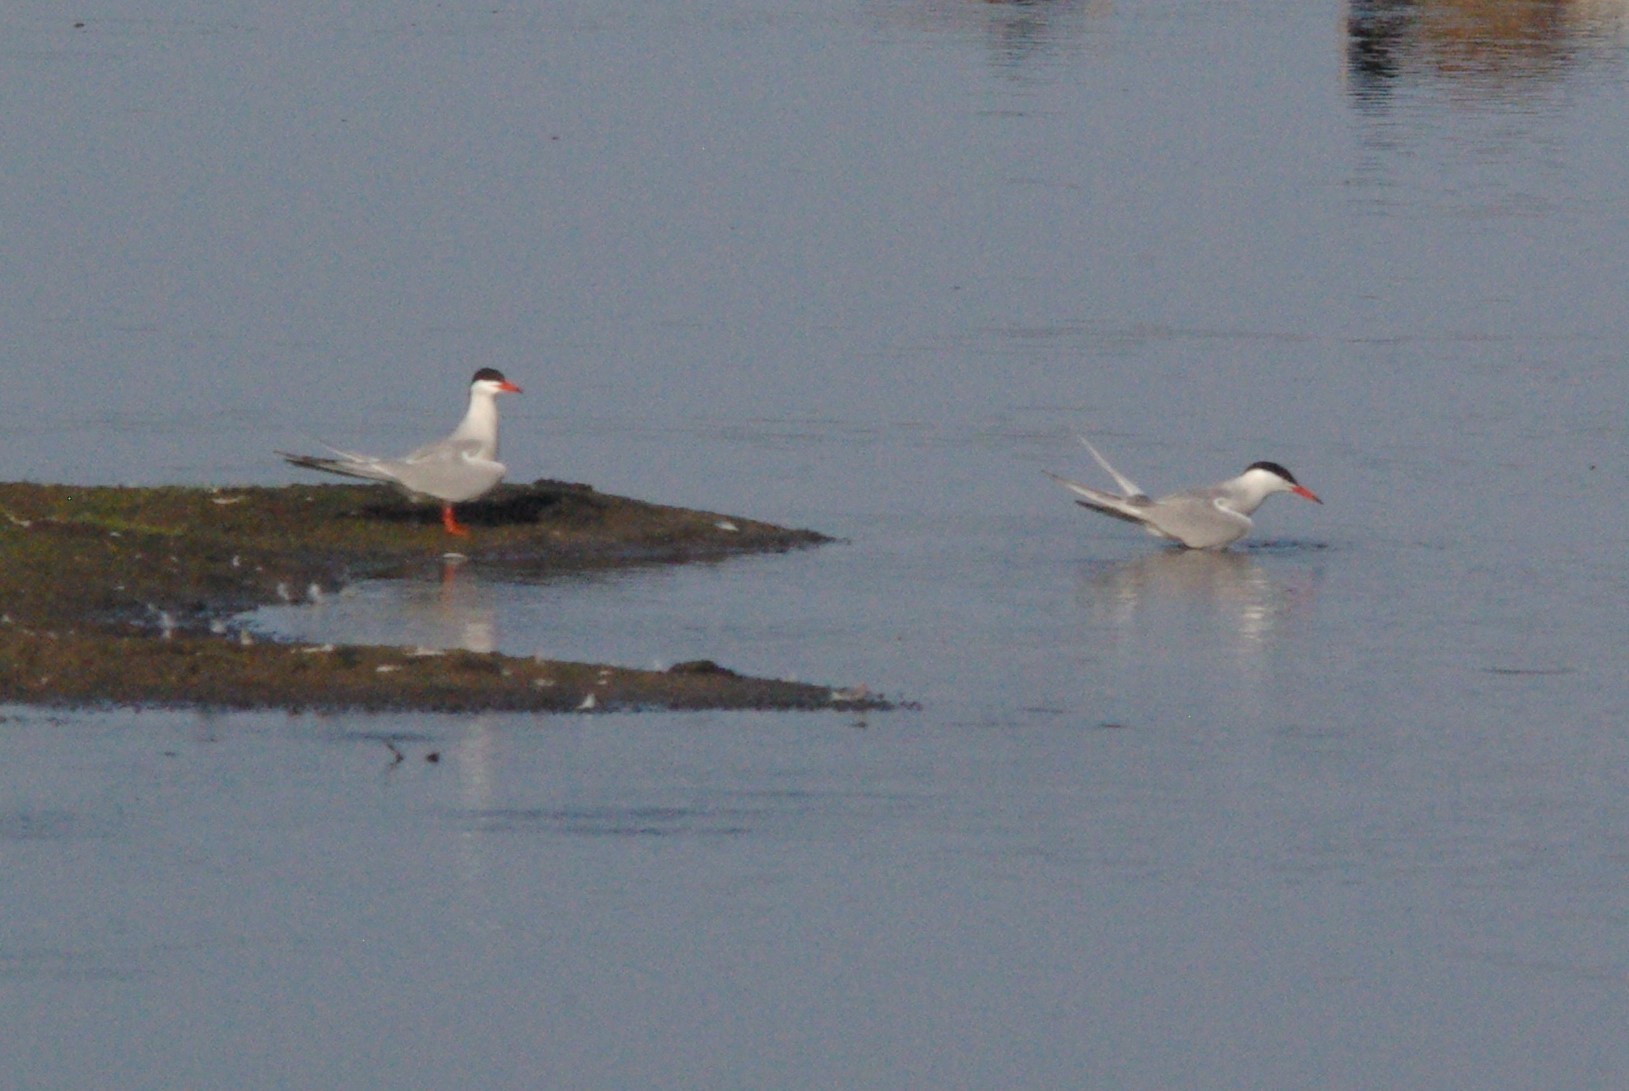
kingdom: Animalia
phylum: Chordata
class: Aves
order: Charadriiformes
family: Laridae
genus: Sterna
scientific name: Sterna hirundo
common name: Common tern
